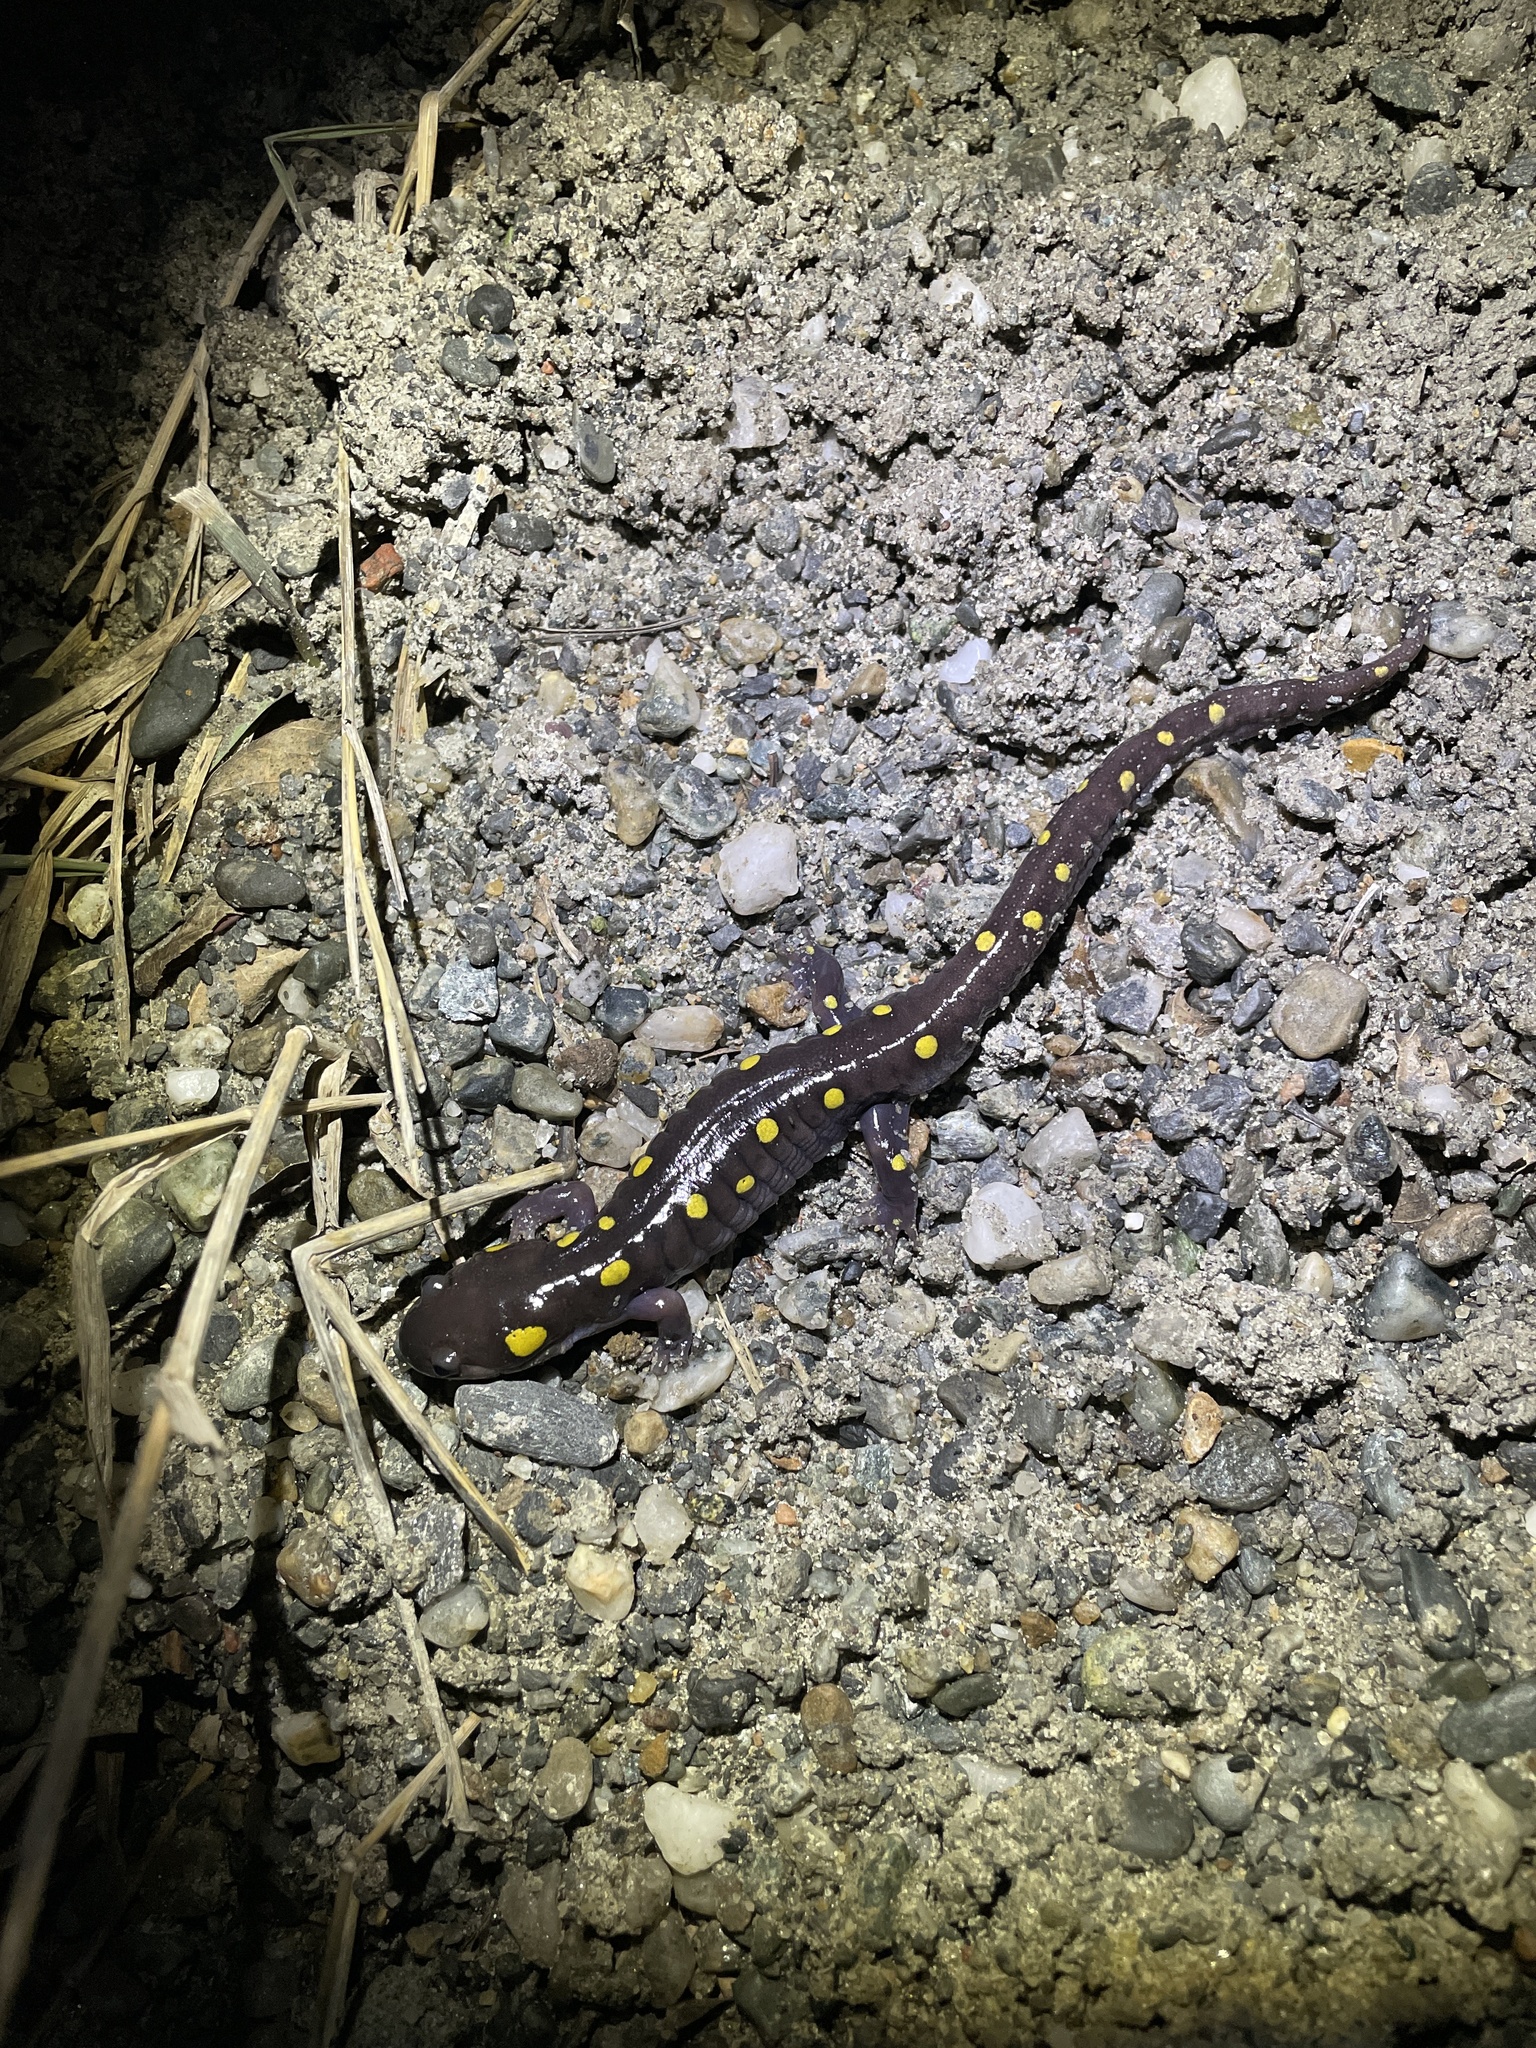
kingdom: Animalia
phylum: Chordata
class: Amphibia
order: Caudata
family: Ambystomatidae
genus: Ambystoma
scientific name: Ambystoma maculatum
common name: Spotted salamander
